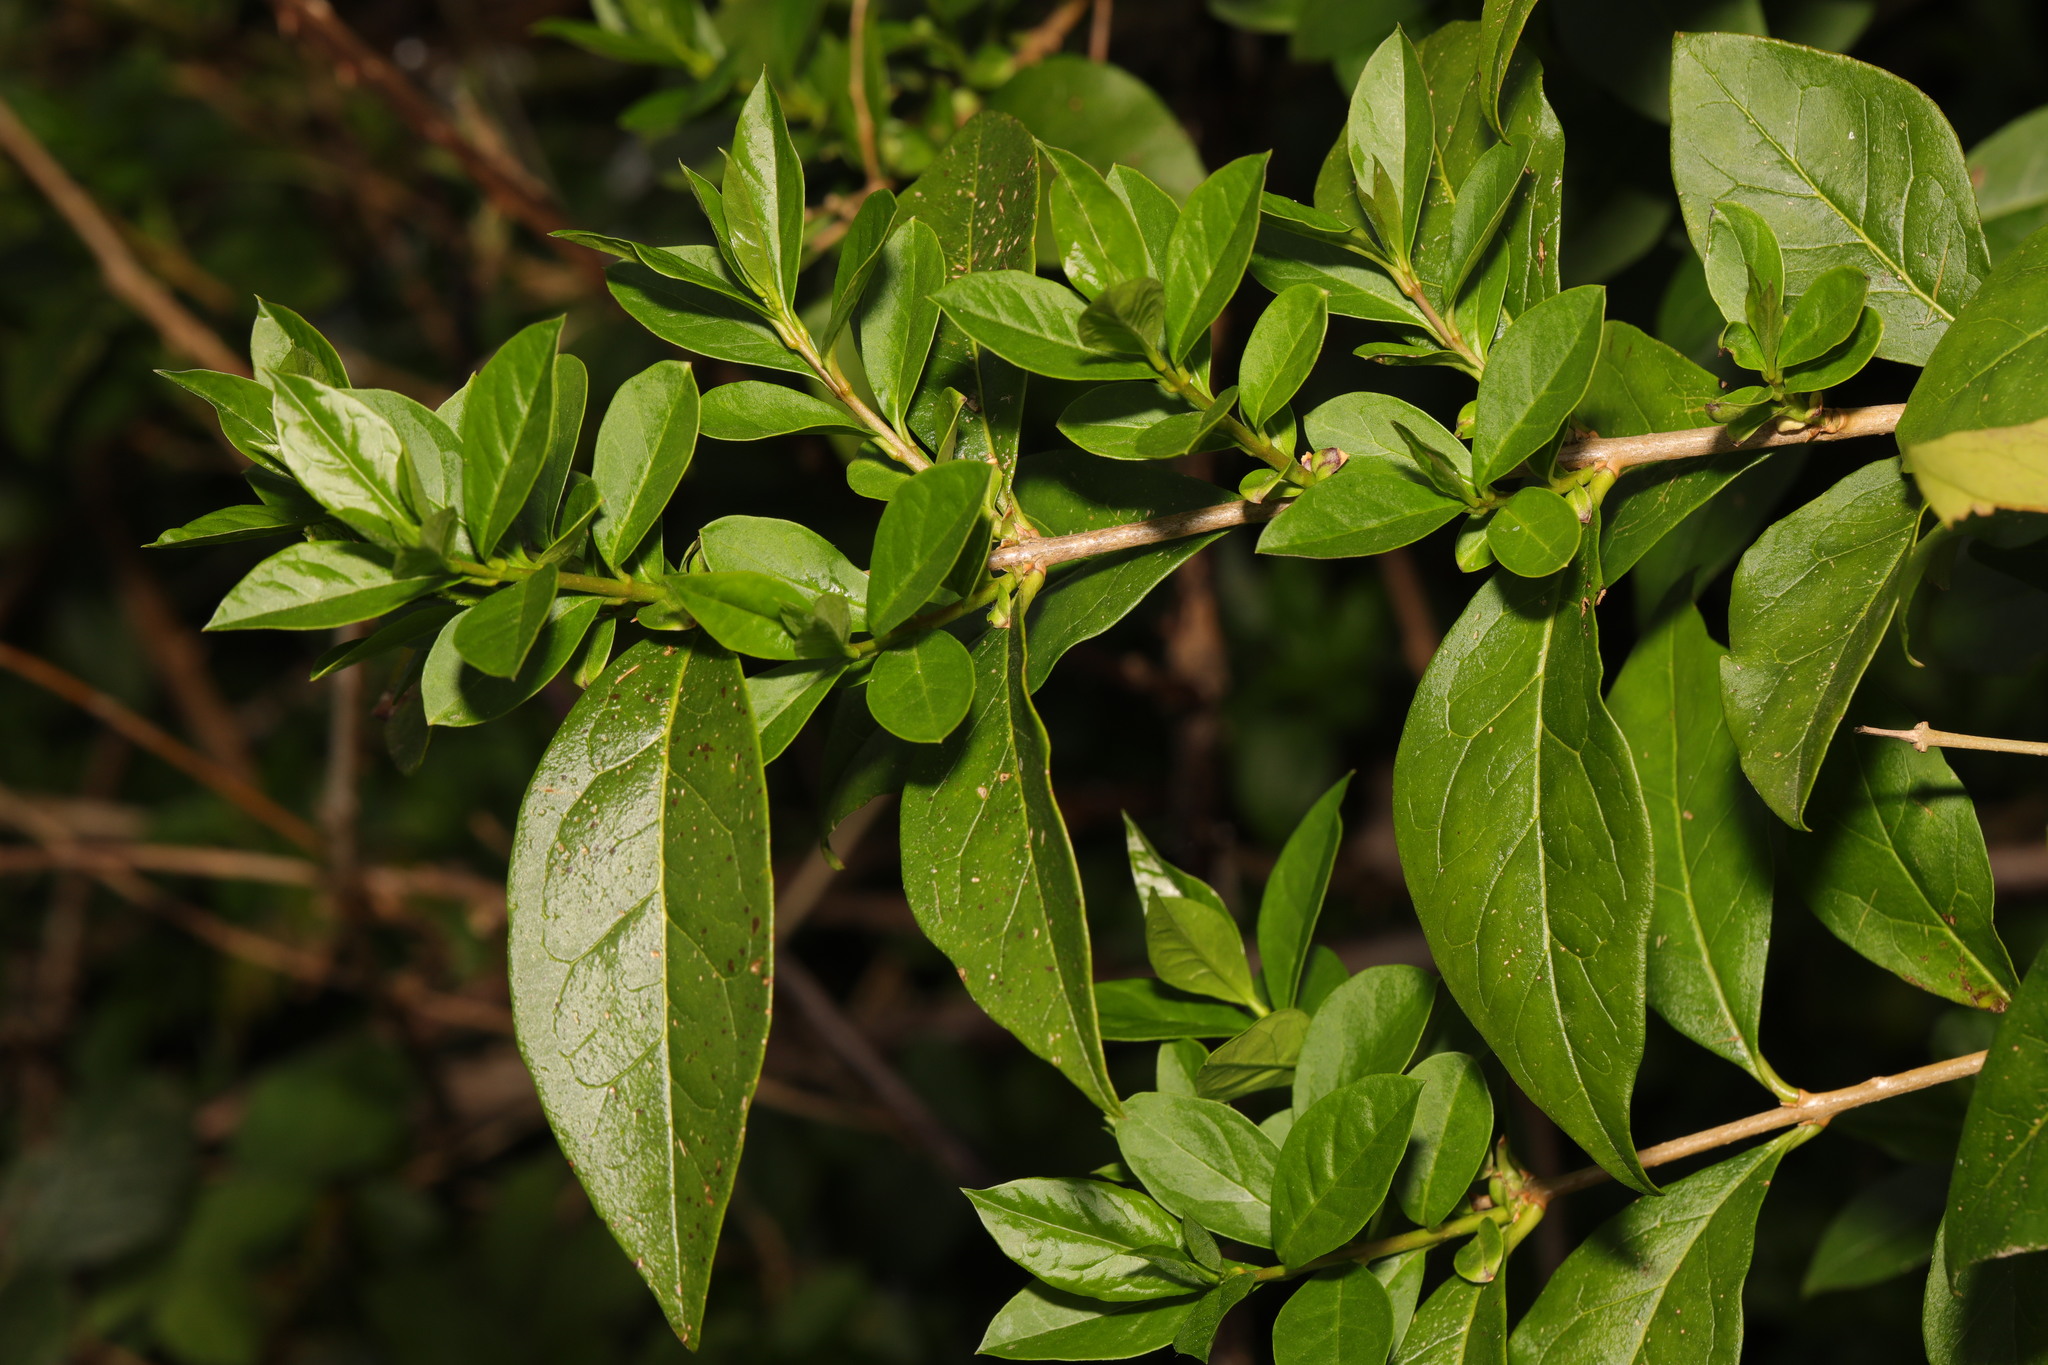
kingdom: Plantae
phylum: Tracheophyta
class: Magnoliopsida
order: Lamiales
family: Oleaceae
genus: Ligustrum
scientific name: Ligustrum ovalifolium
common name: California privet
